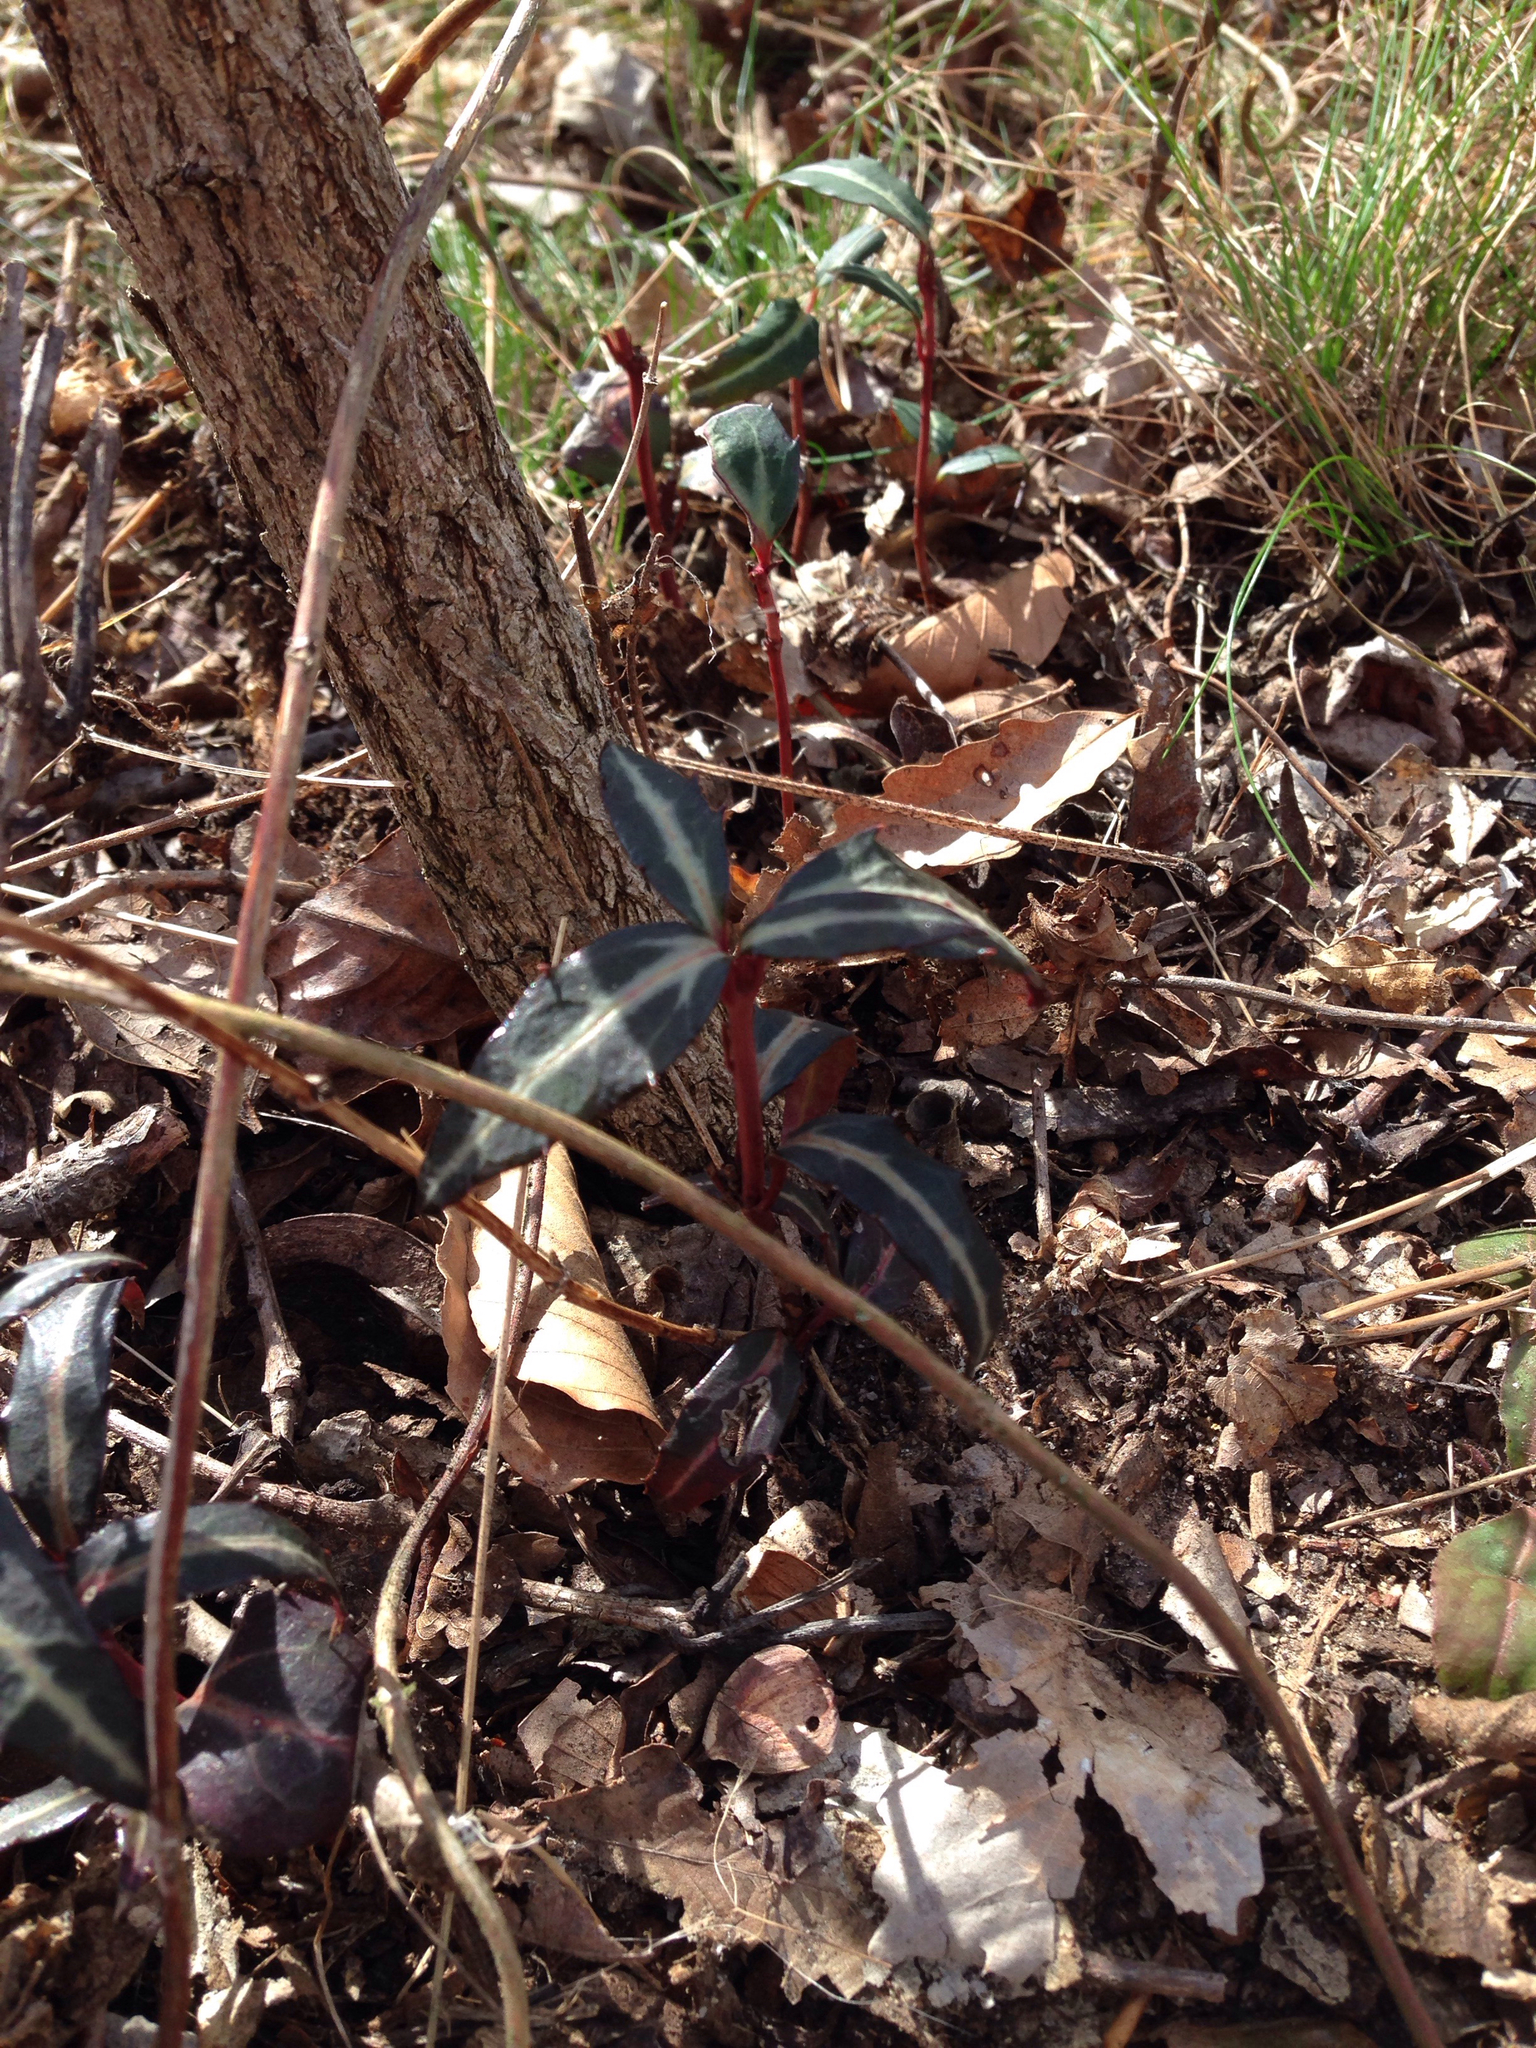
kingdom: Plantae
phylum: Tracheophyta
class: Magnoliopsida
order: Ericales
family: Ericaceae
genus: Chimaphila
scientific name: Chimaphila maculata
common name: Spotted pipsissewa
